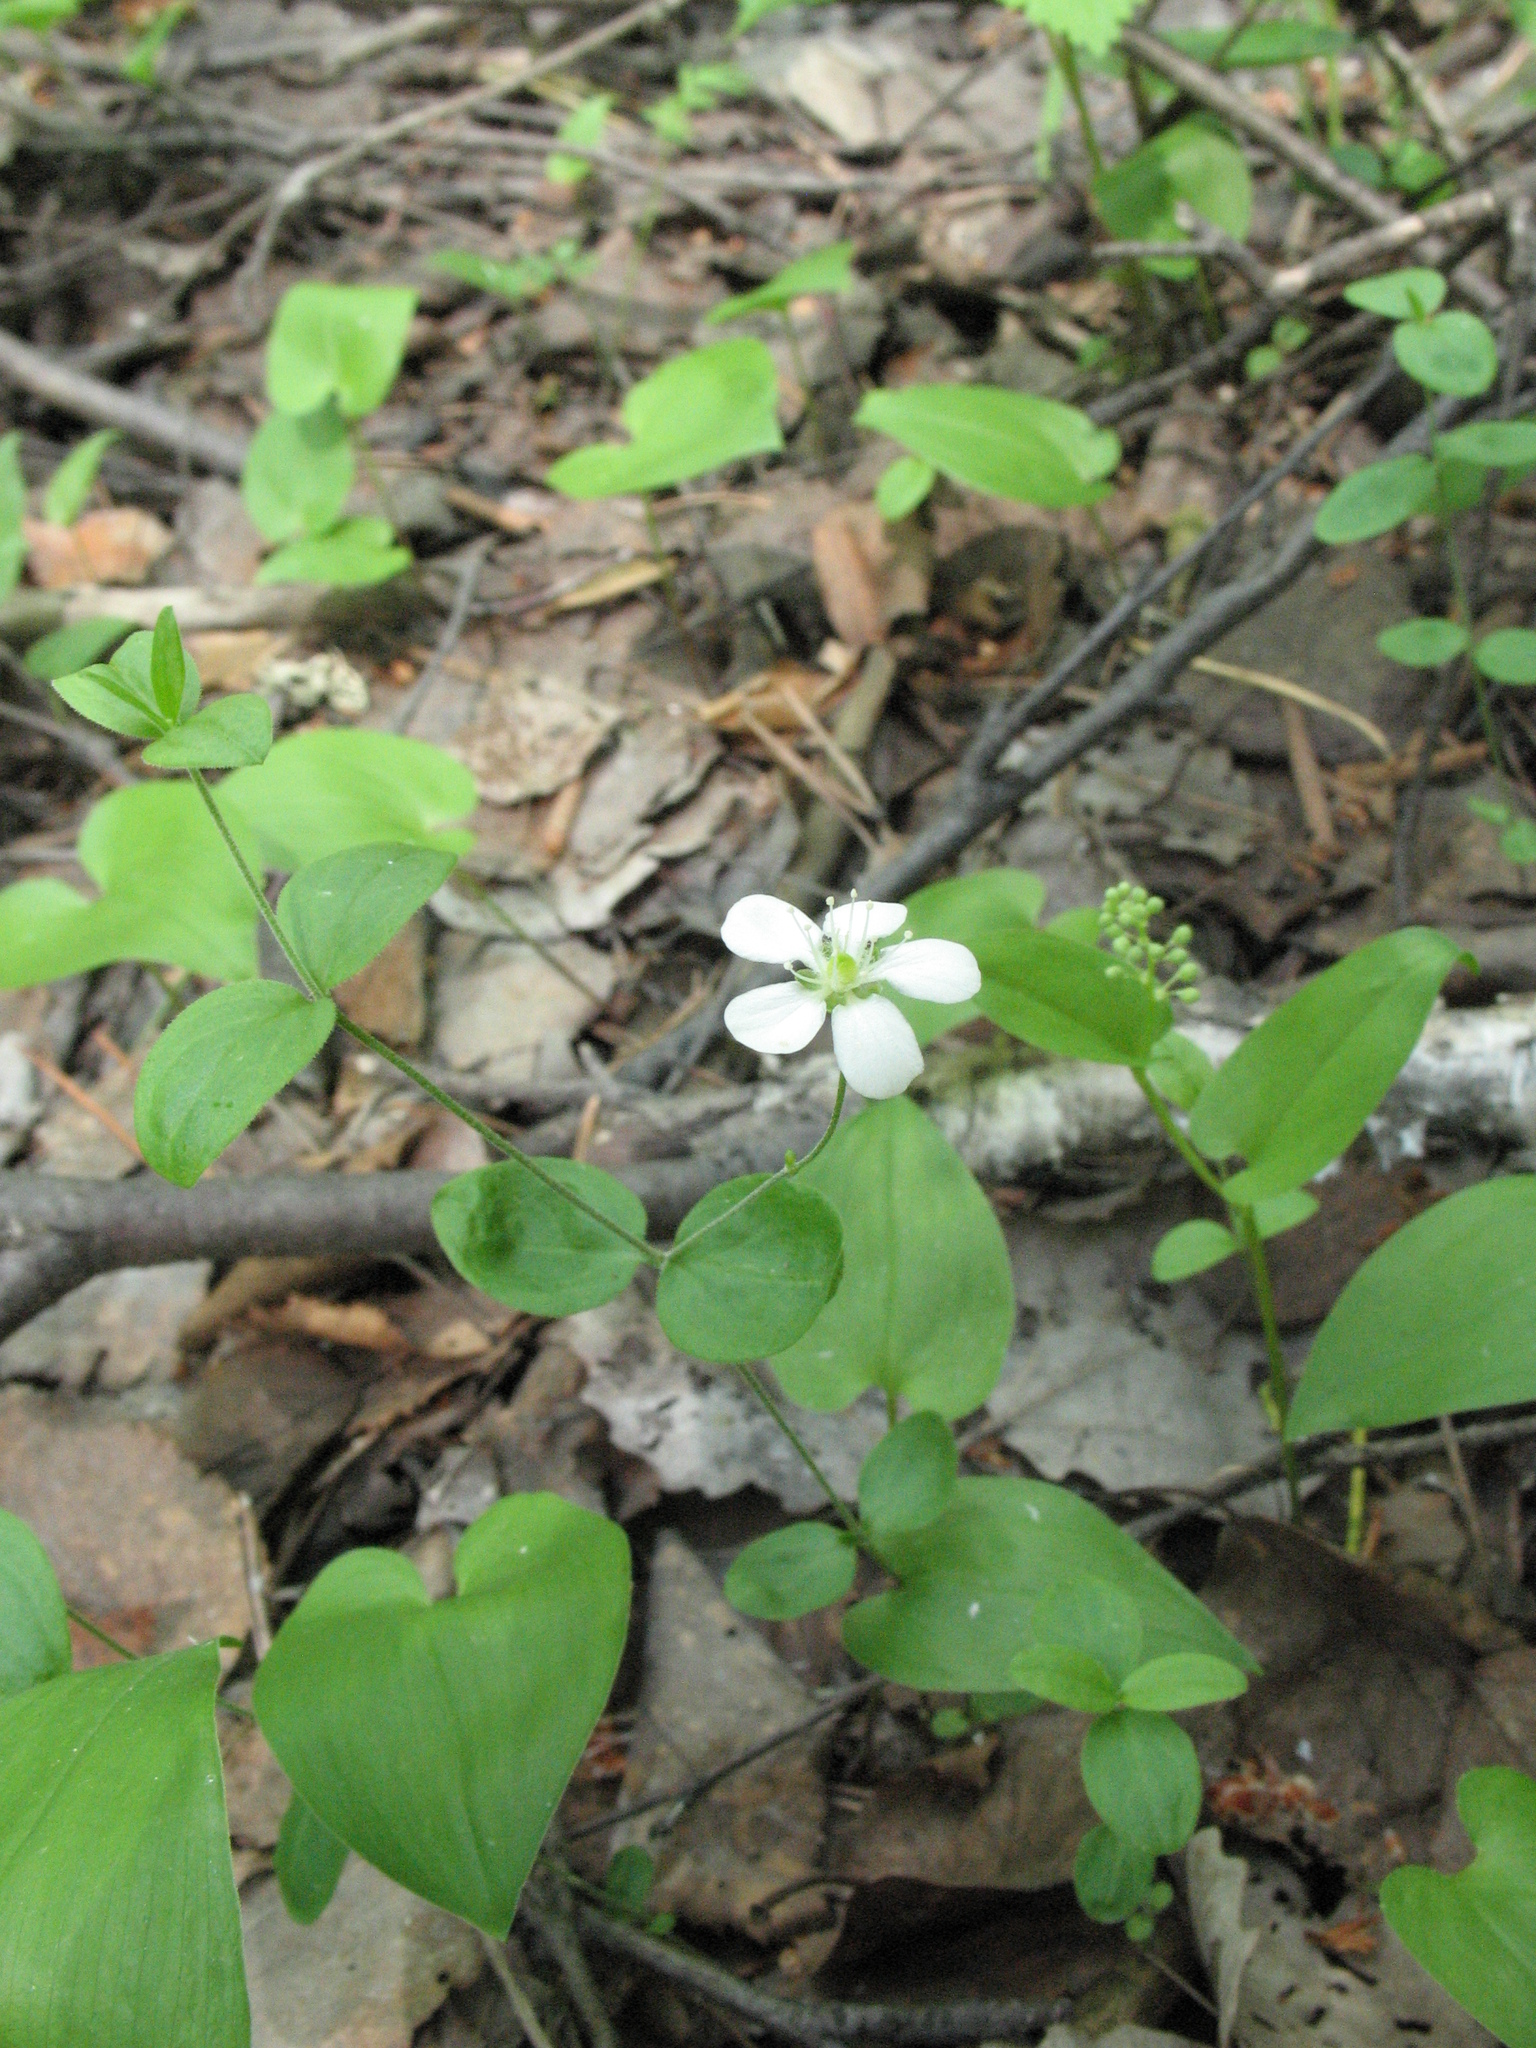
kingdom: Plantae
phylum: Tracheophyta
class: Magnoliopsida
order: Caryophyllales
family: Caryophyllaceae
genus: Moehringia
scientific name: Moehringia lateriflora
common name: Blunt-leaved sandwort
